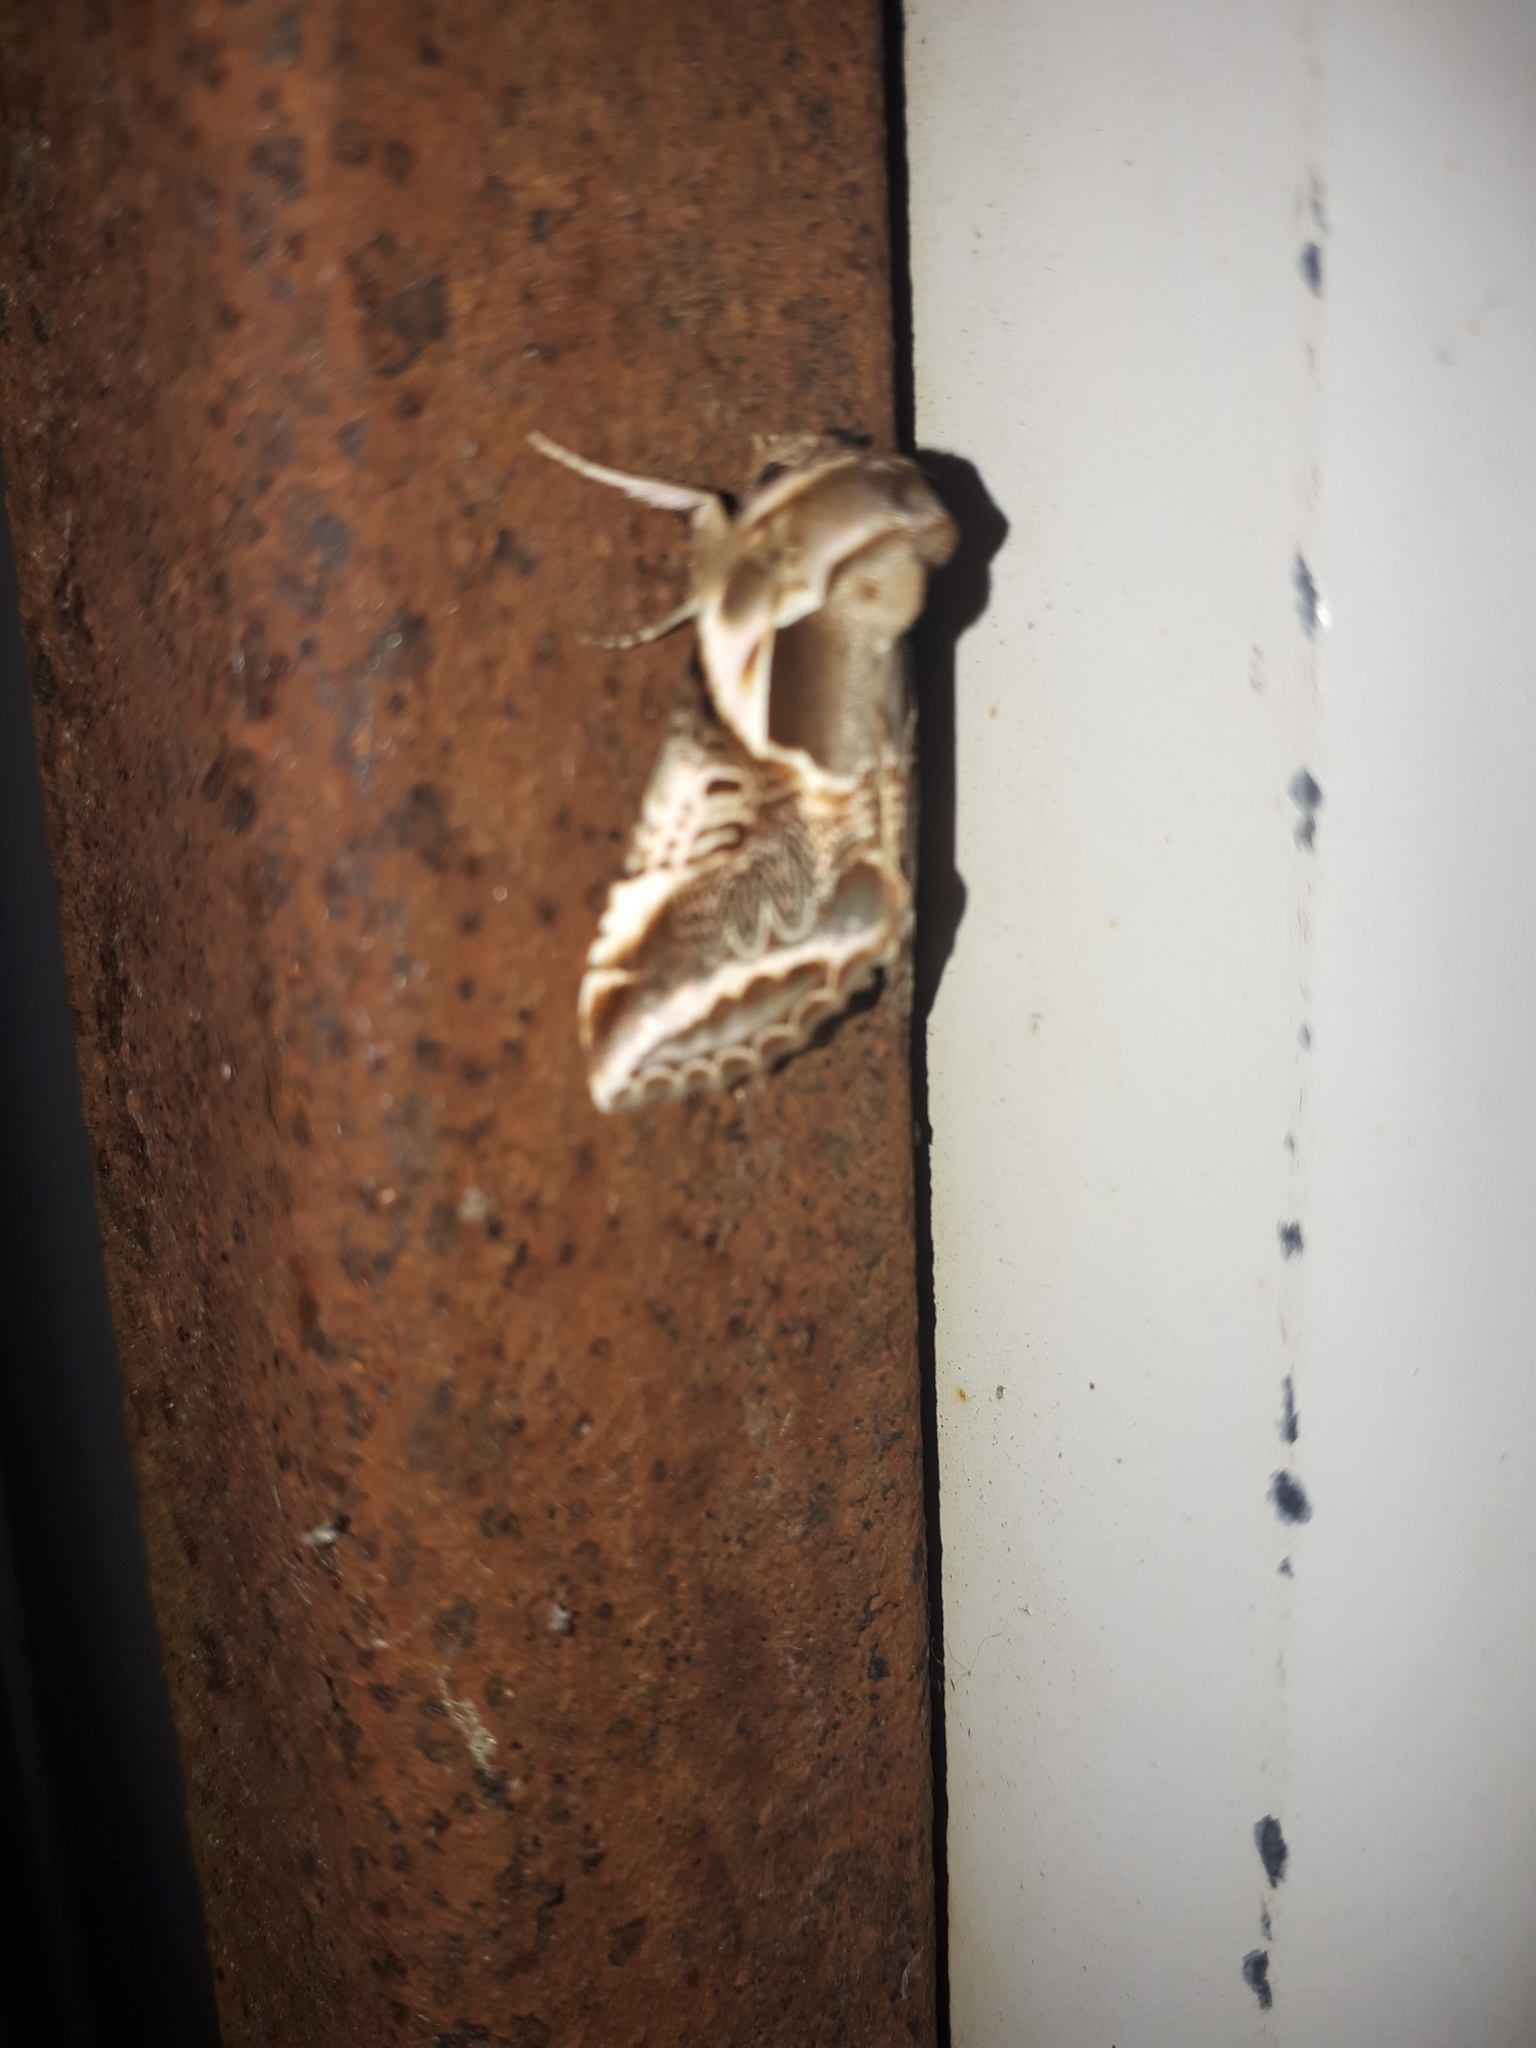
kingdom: Animalia
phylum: Arthropoda
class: Insecta
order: Lepidoptera
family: Drepanidae
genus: Habrosyne
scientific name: Habrosyne scripta
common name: Lettered habrosyne moth
